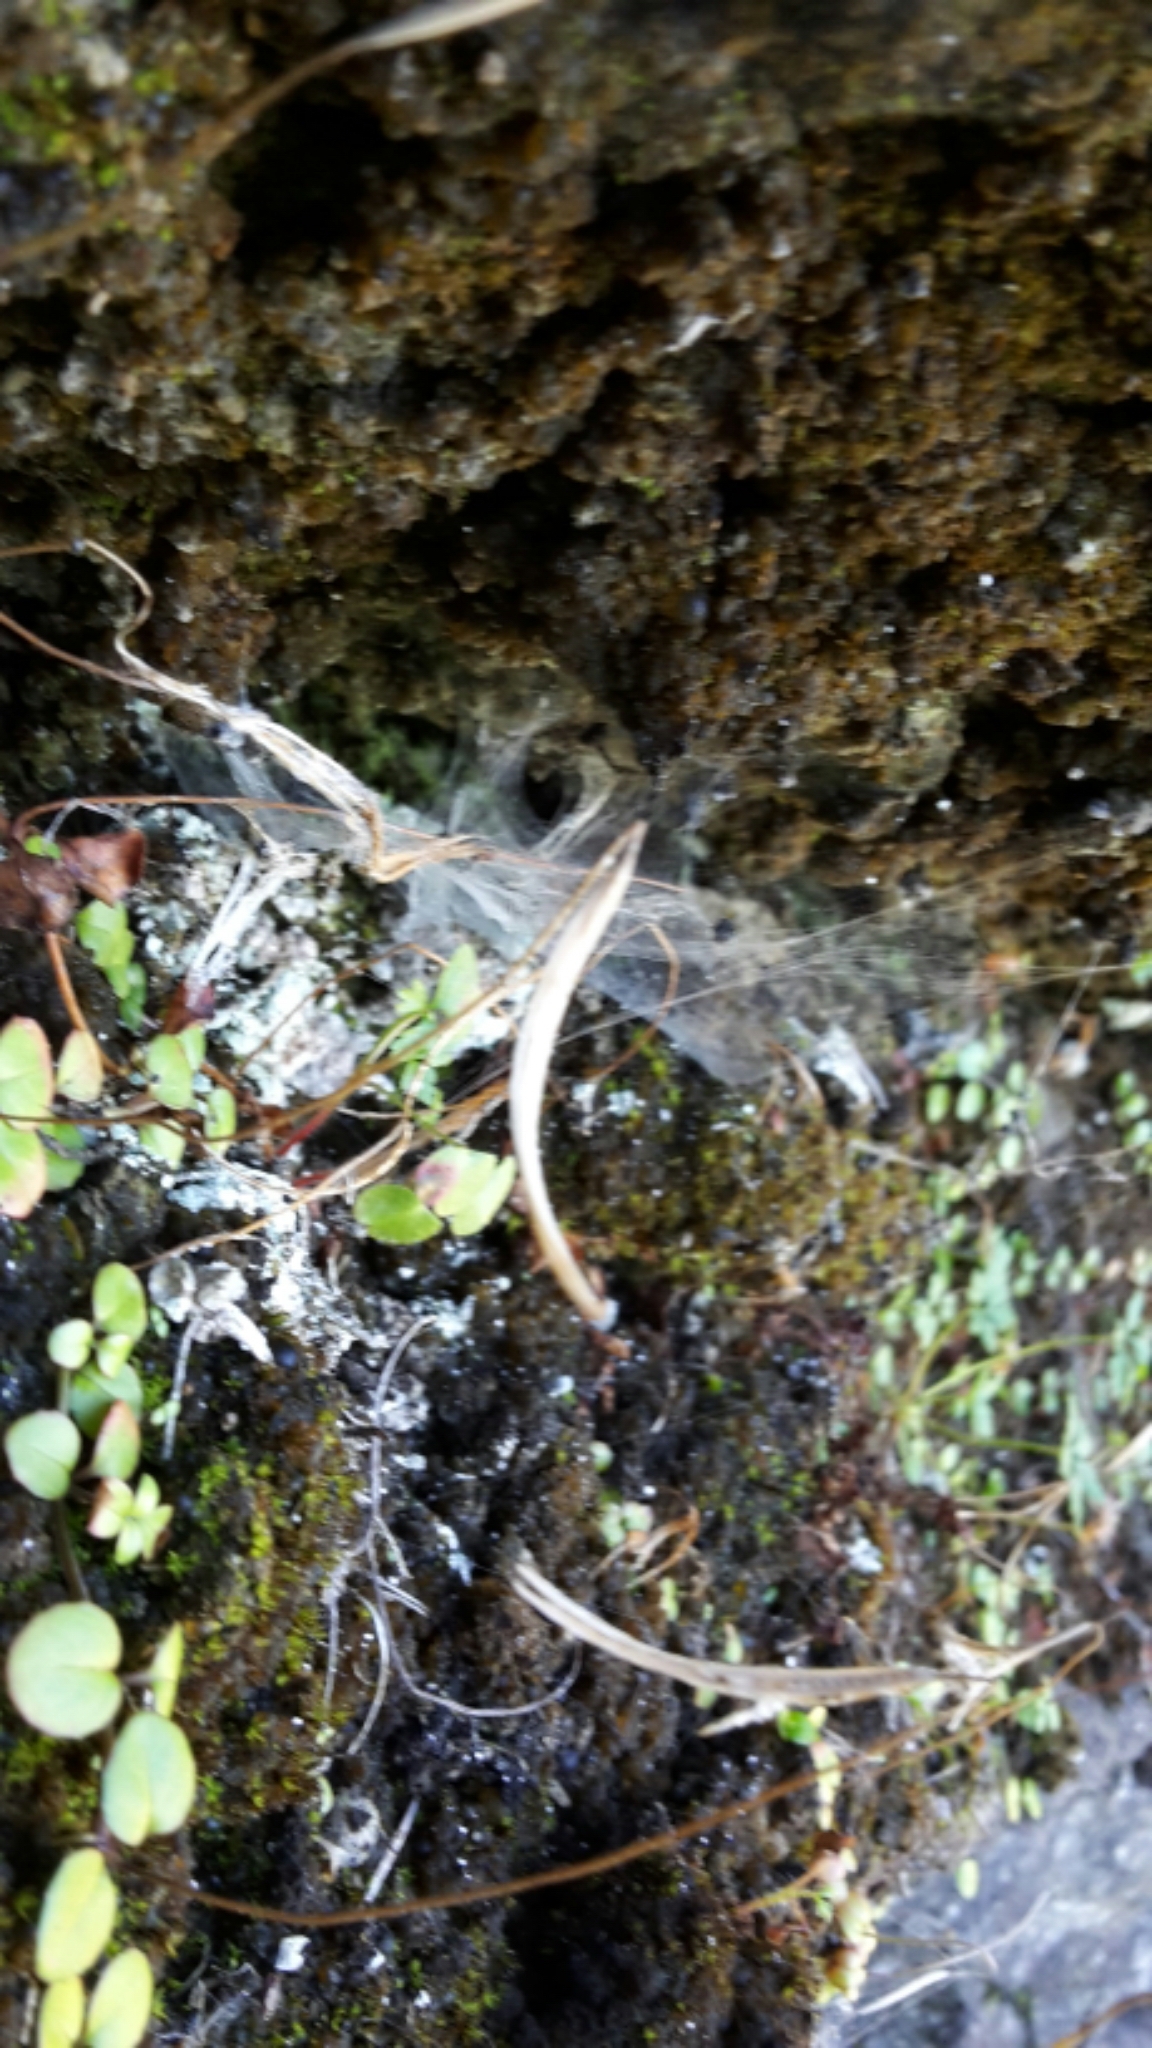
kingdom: Plantae
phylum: Tracheophyta
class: Magnoliopsida
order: Myrtales
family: Onagraceae
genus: Epilobium
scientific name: Epilobium nummularifolium
